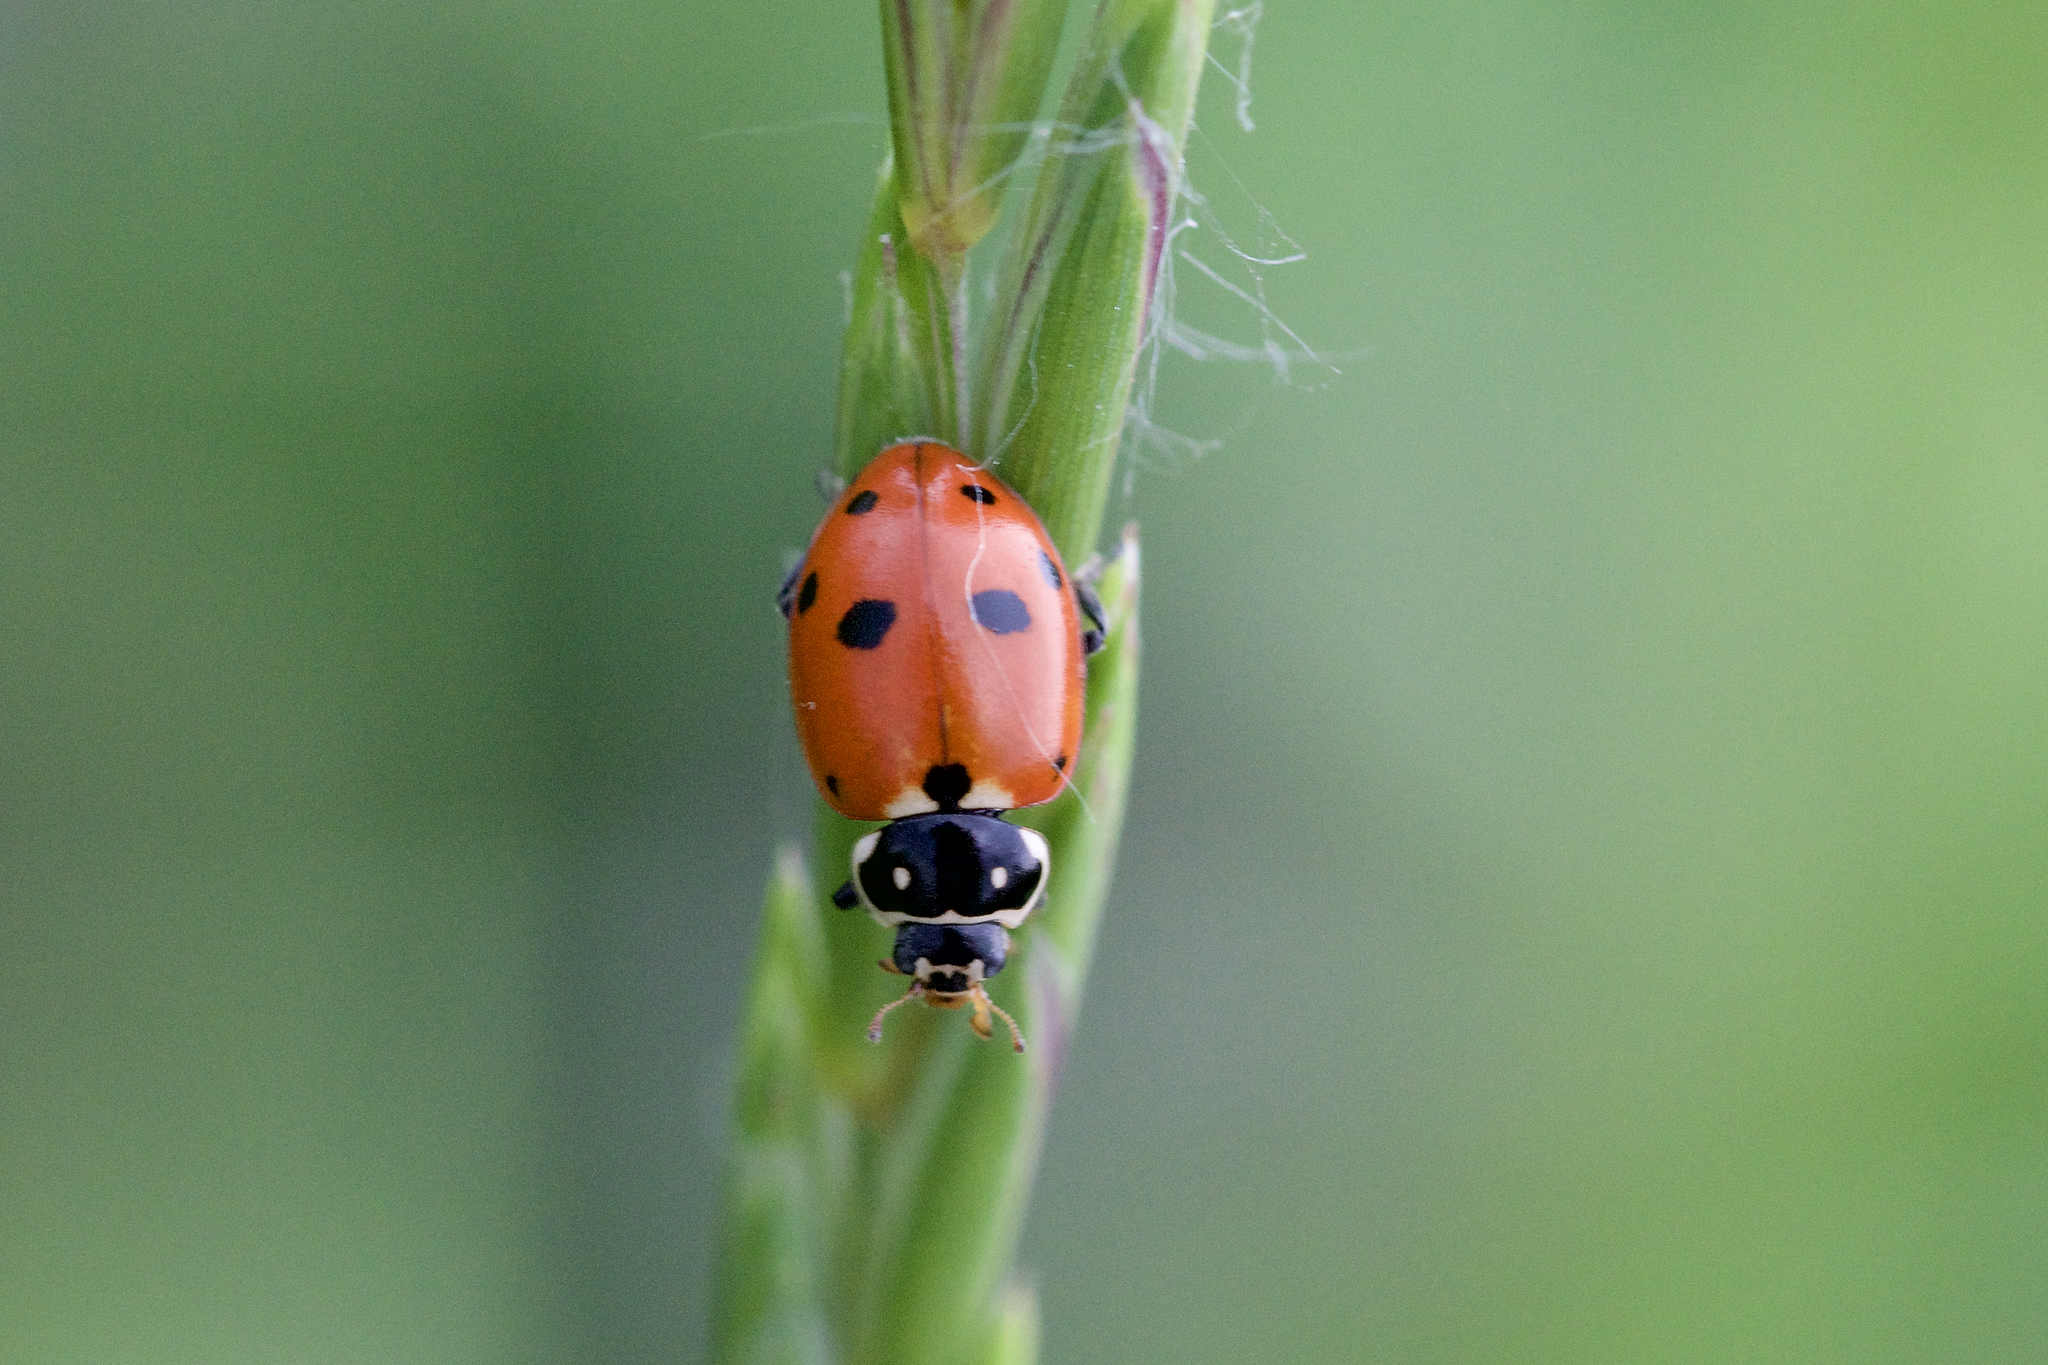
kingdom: Animalia
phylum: Arthropoda
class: Insecta
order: Coleoptera
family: Coccinellidae
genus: Hippodamia
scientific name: Hippodamia variegata
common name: Ladybird beetle
